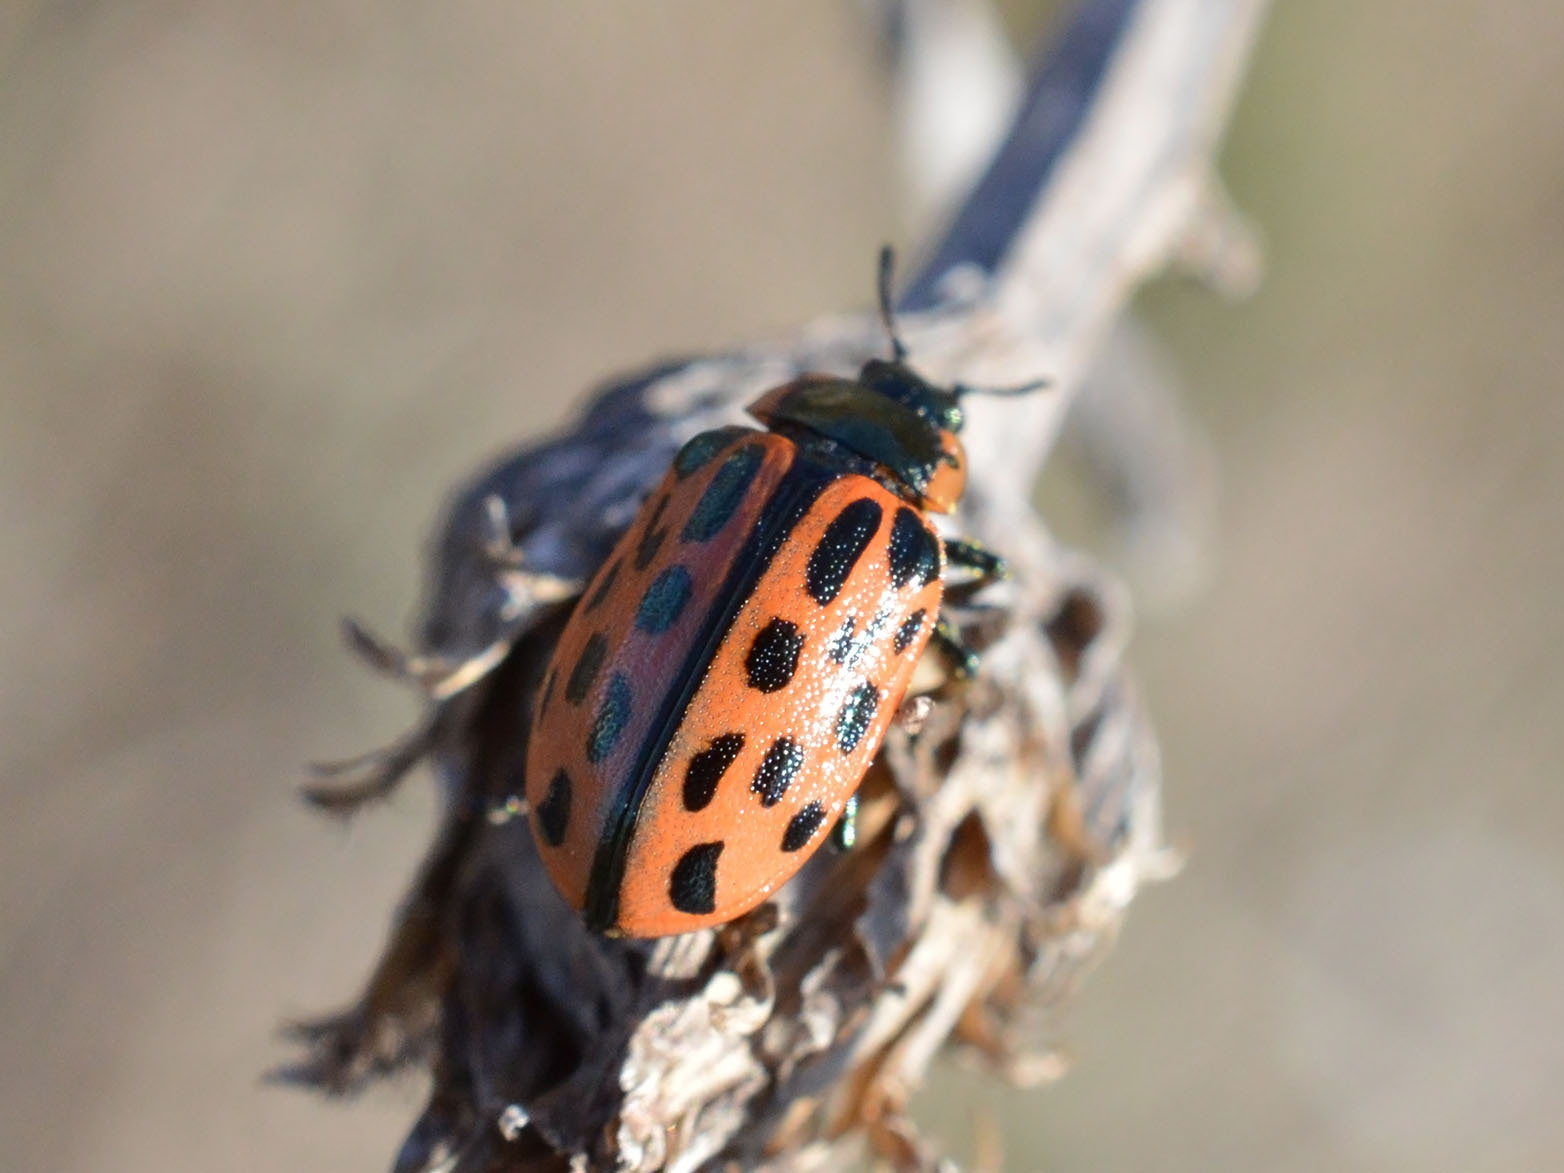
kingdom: Animalia
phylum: Arthropoda
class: Insecta
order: Coleoptera
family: Chrysomelidae
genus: Chrysomela
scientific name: Chrysomela vigintipunctata
